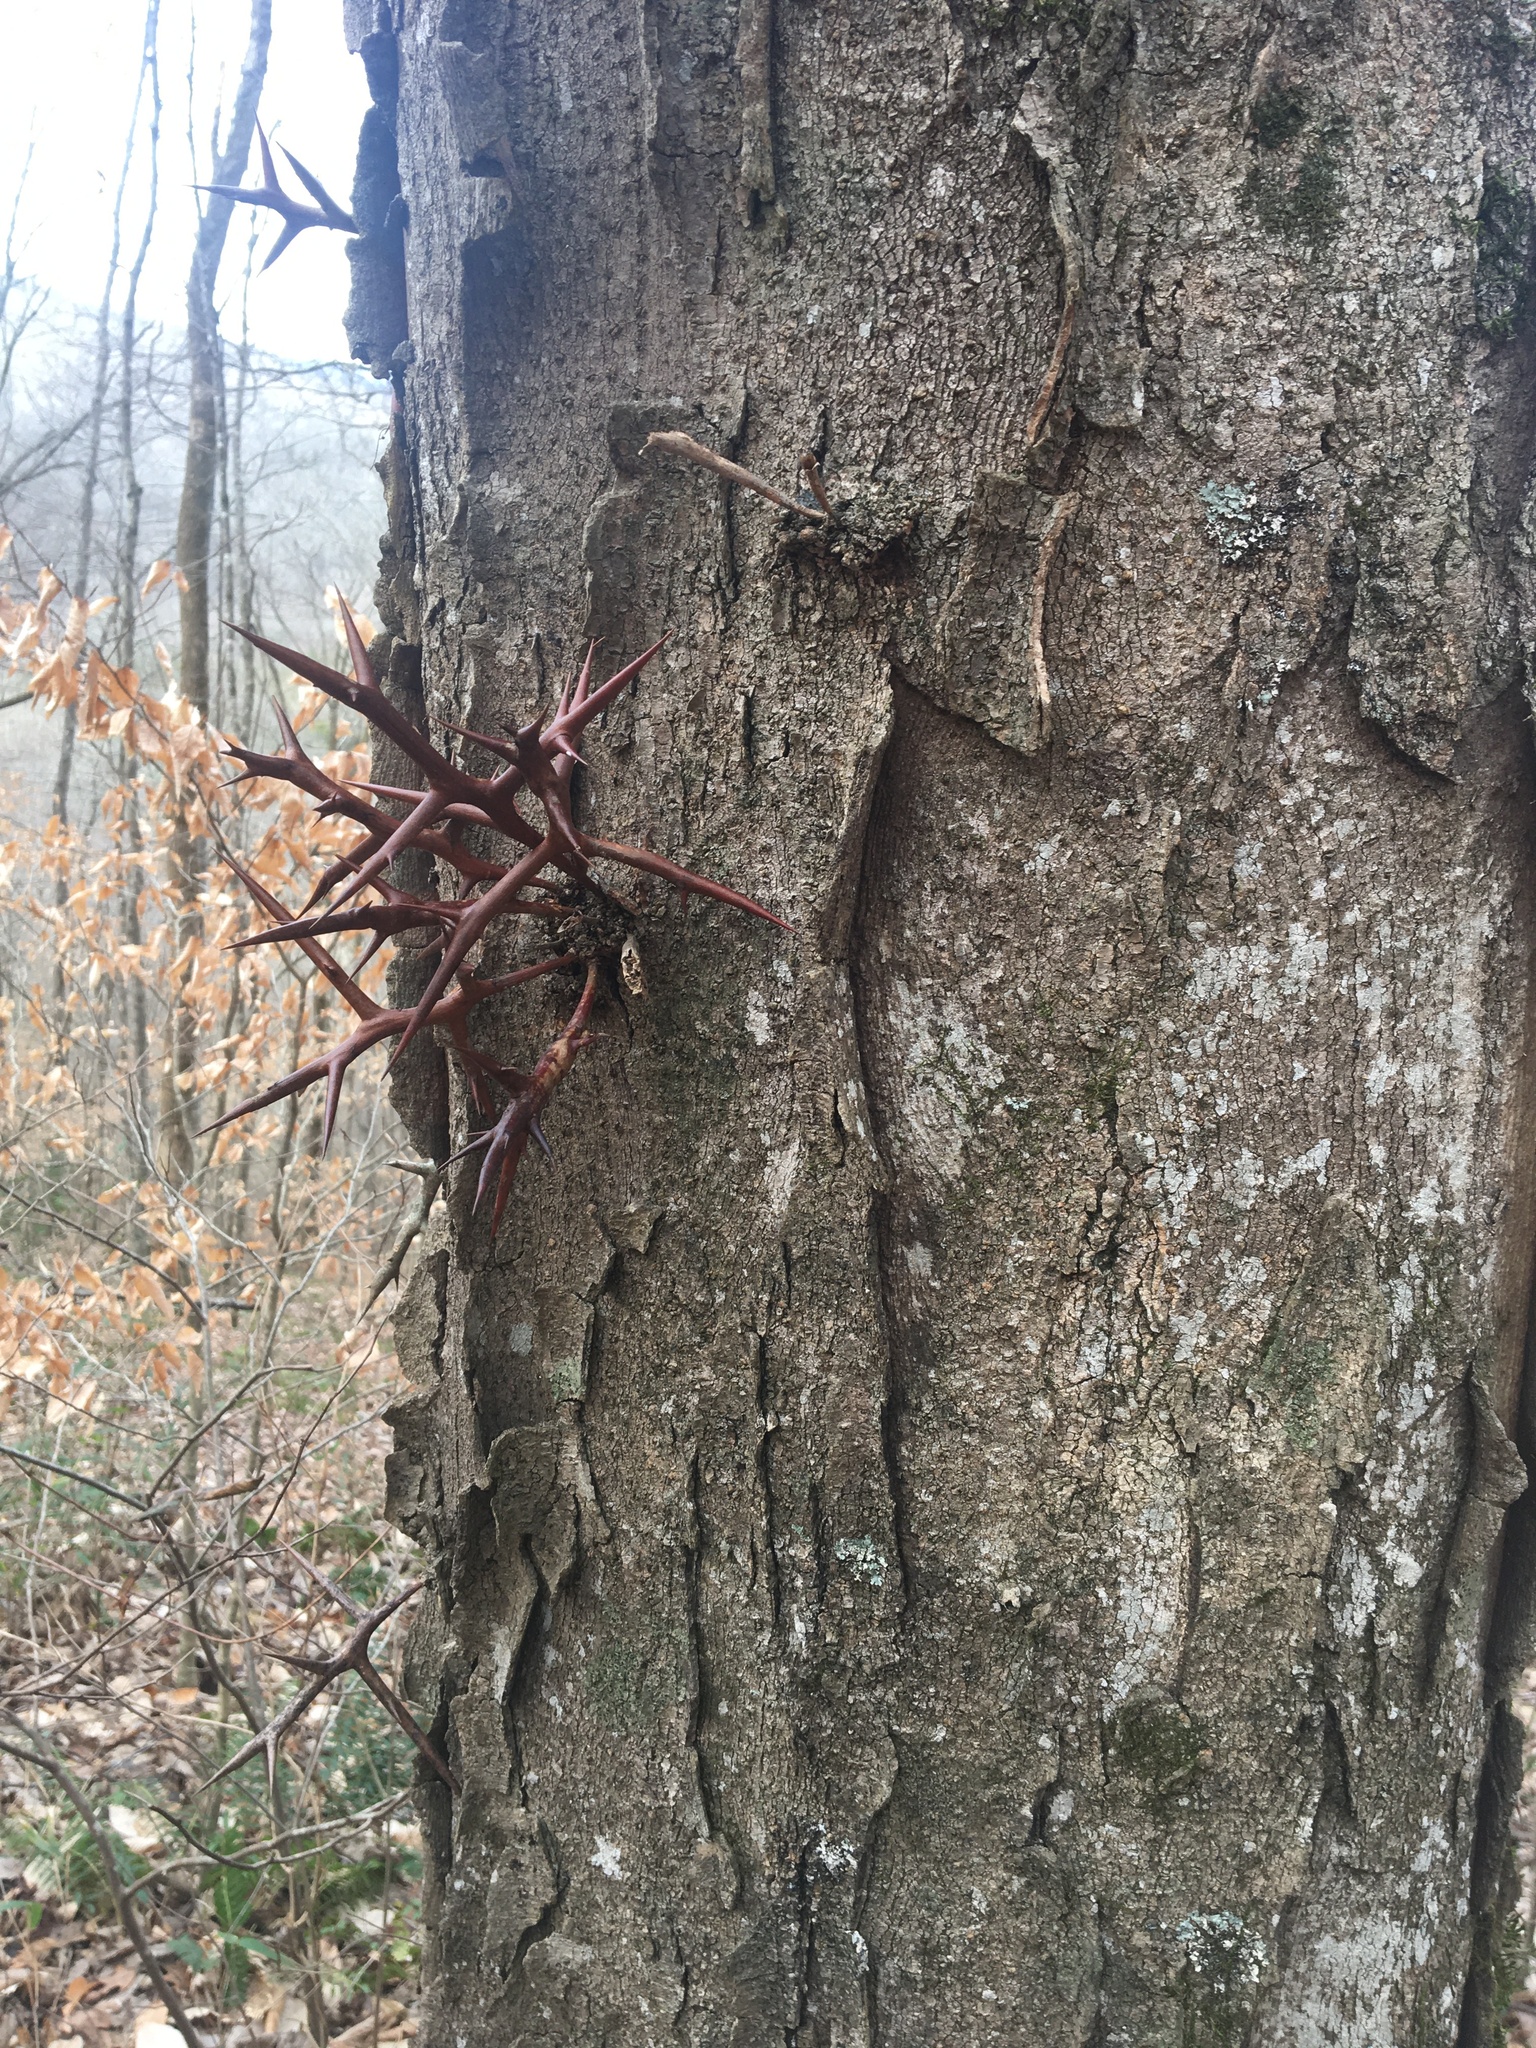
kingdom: Plantae
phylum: Tracheophyta
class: Magnoliopsida
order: Fabales
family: Fabaceae
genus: Gleditsia
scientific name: Gleditsia triacanthos
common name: Common honeylocust
